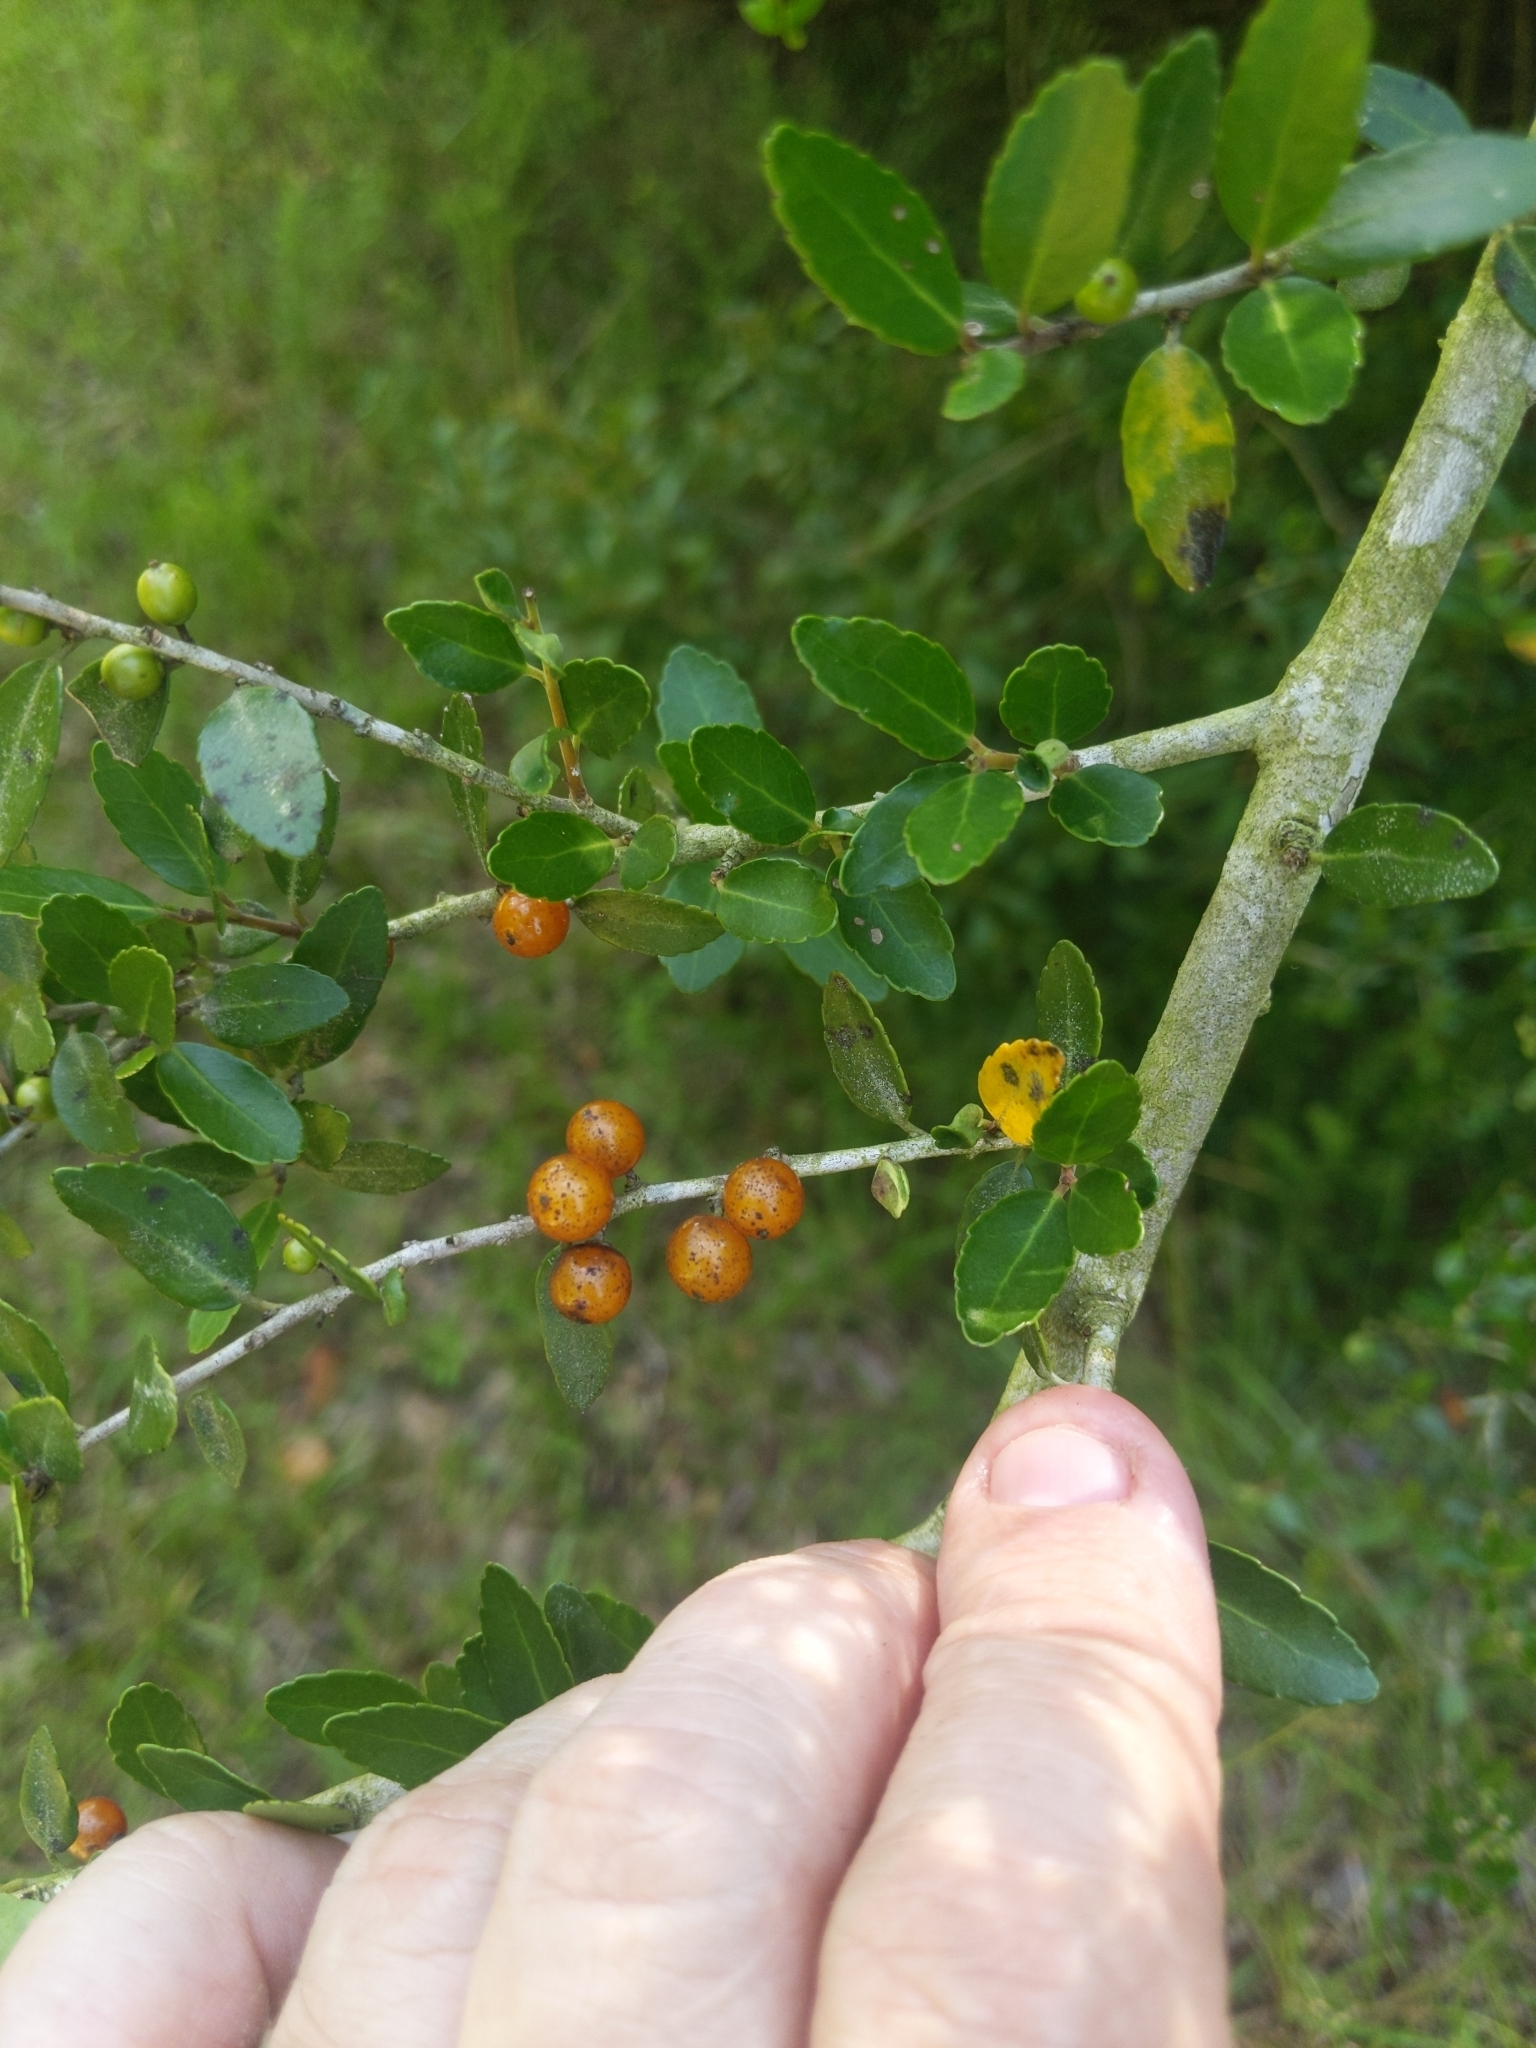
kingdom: Plantae
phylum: Tracheophyta
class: Magnoliopsida
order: Aquifoliales
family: Aquifoliaceae
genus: Ilex
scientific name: Ilex vomitoria
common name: Yaupon holly
